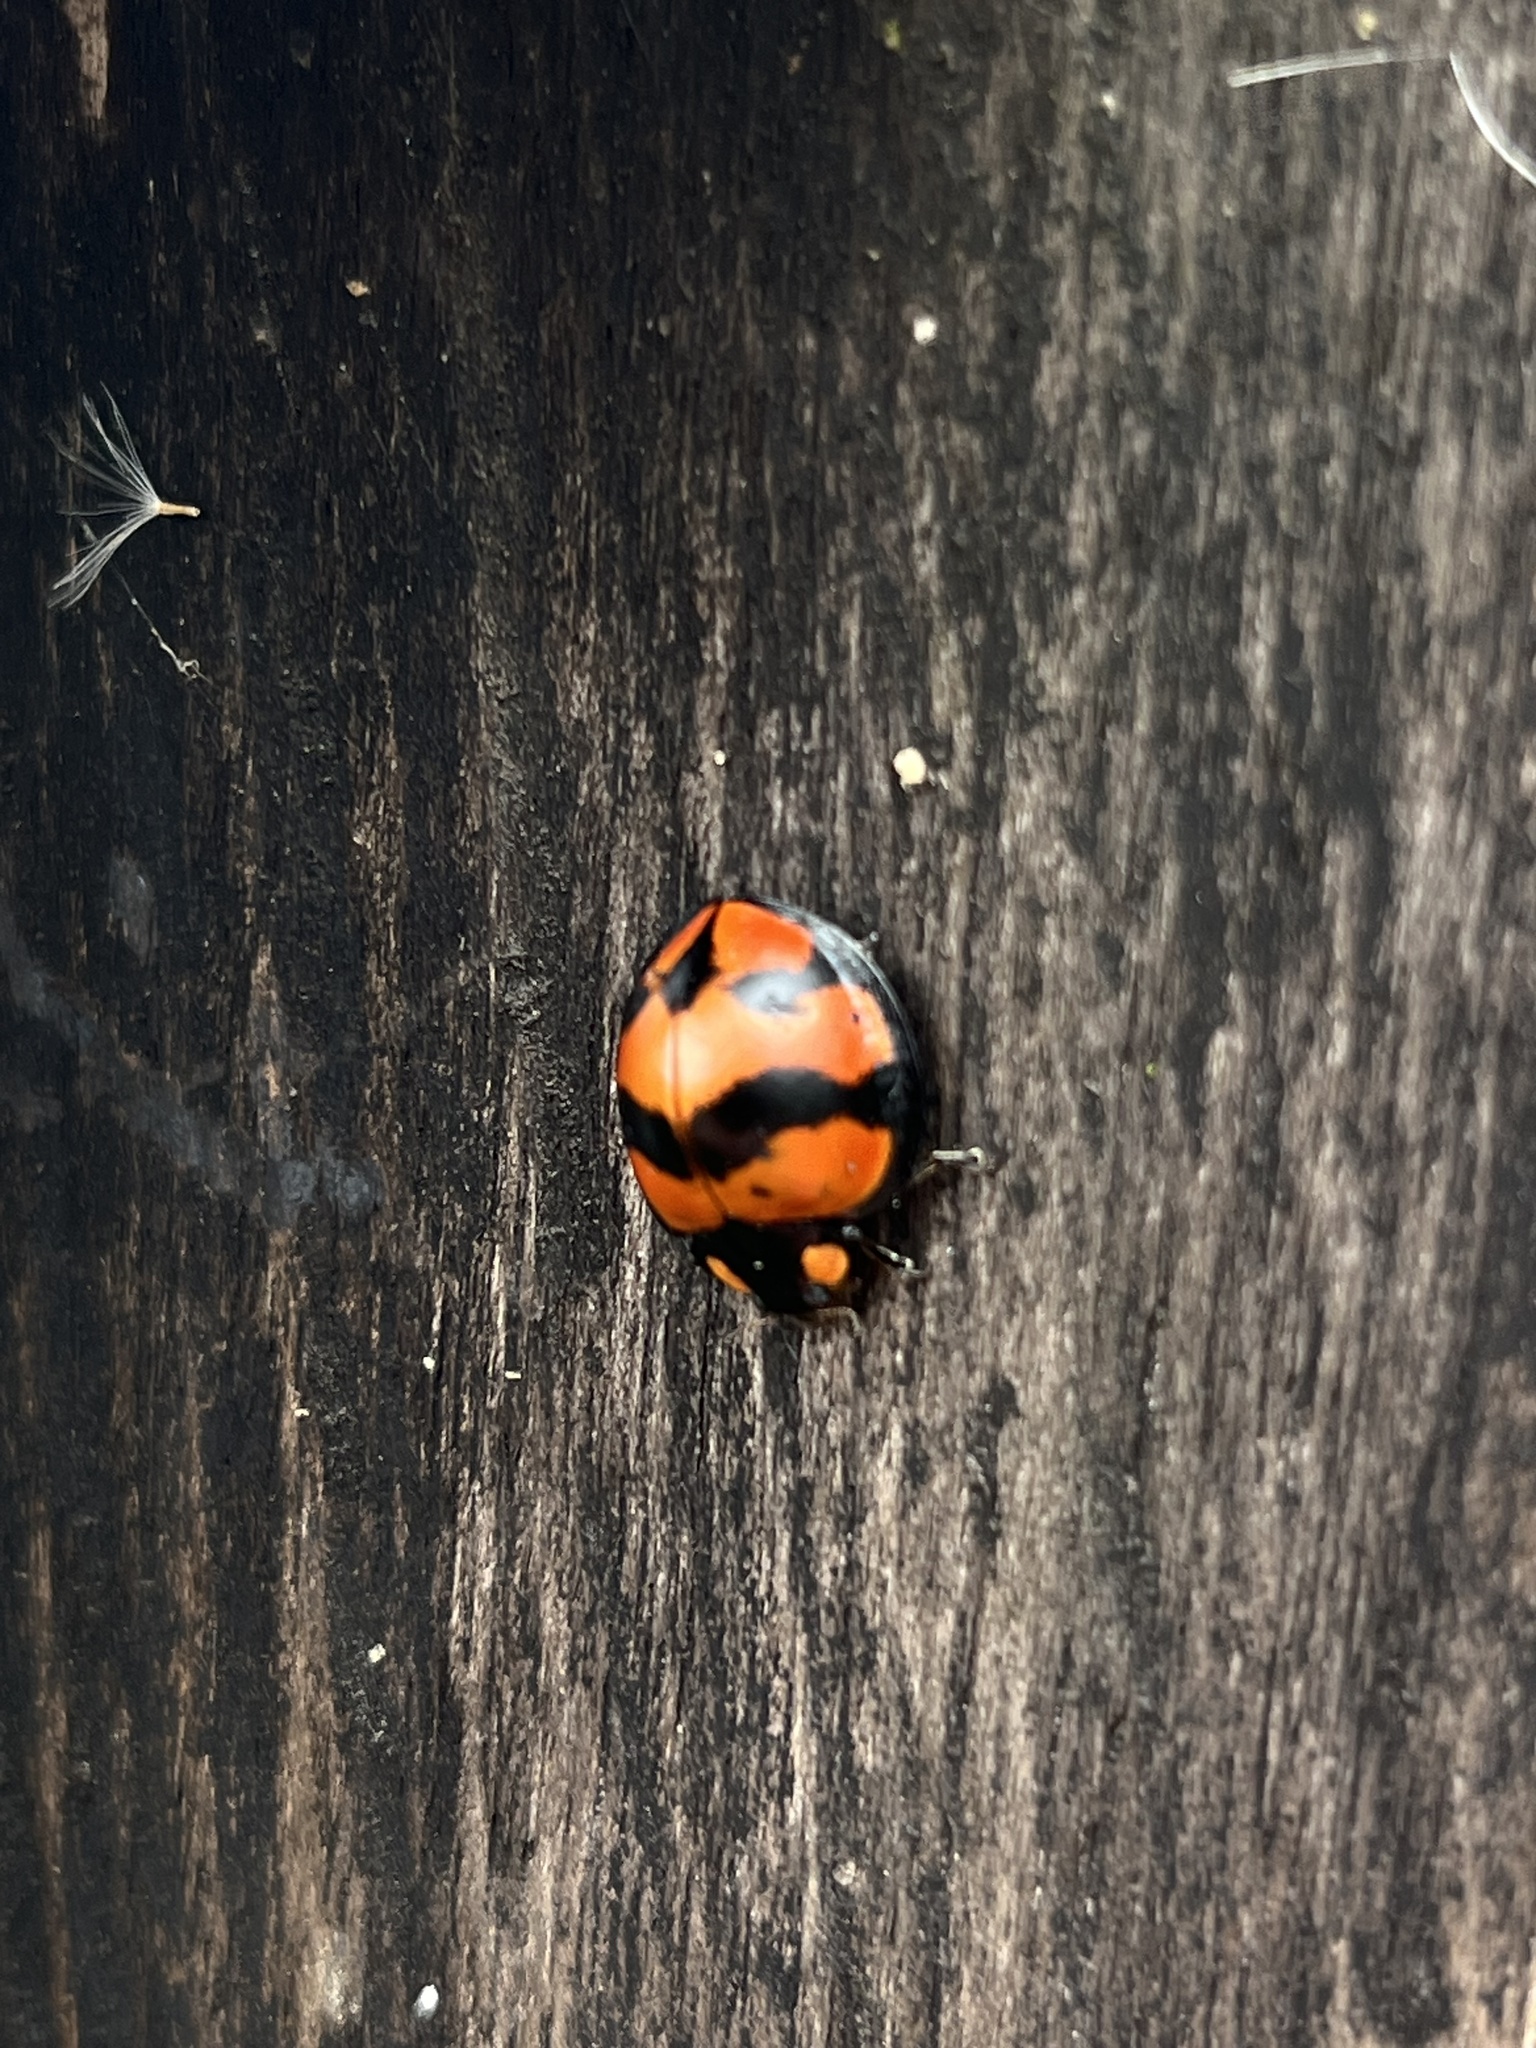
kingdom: Animalia
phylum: Arthropoda
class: Insecta
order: Coleoptera
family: Coccinellidae
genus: Neda
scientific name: Neda norrisi
